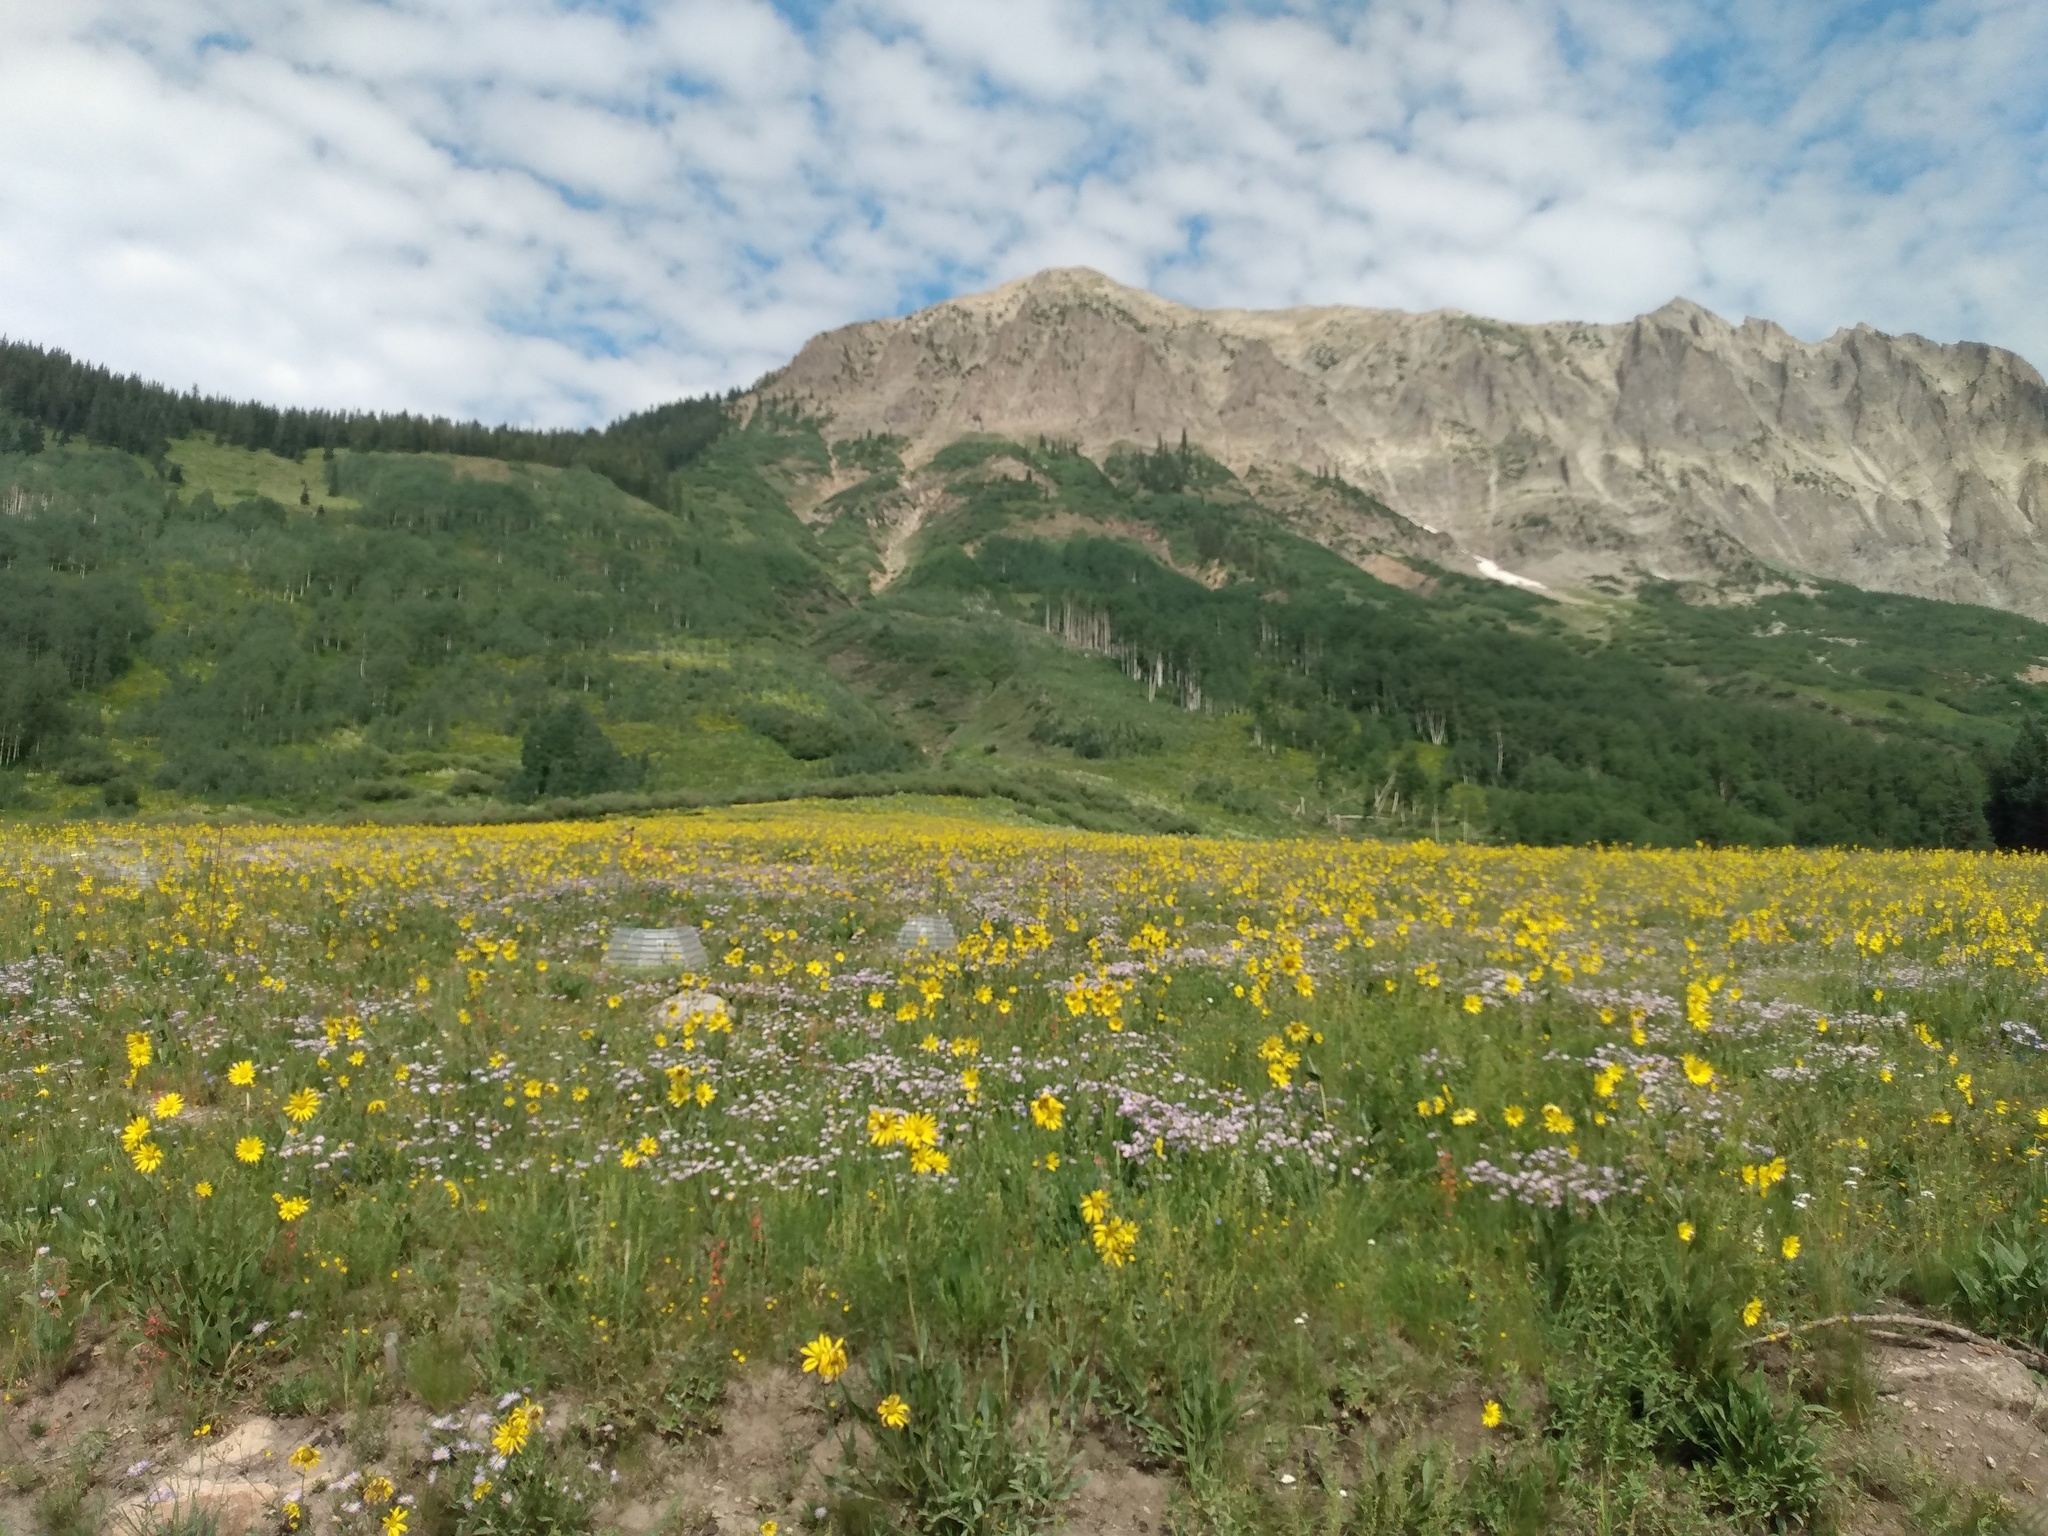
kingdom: Plantae
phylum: Tracheophyta
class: Magnoliopsida
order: Asterales
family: Asteraceae
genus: Helianthella
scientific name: Helianthella quinquenervis
